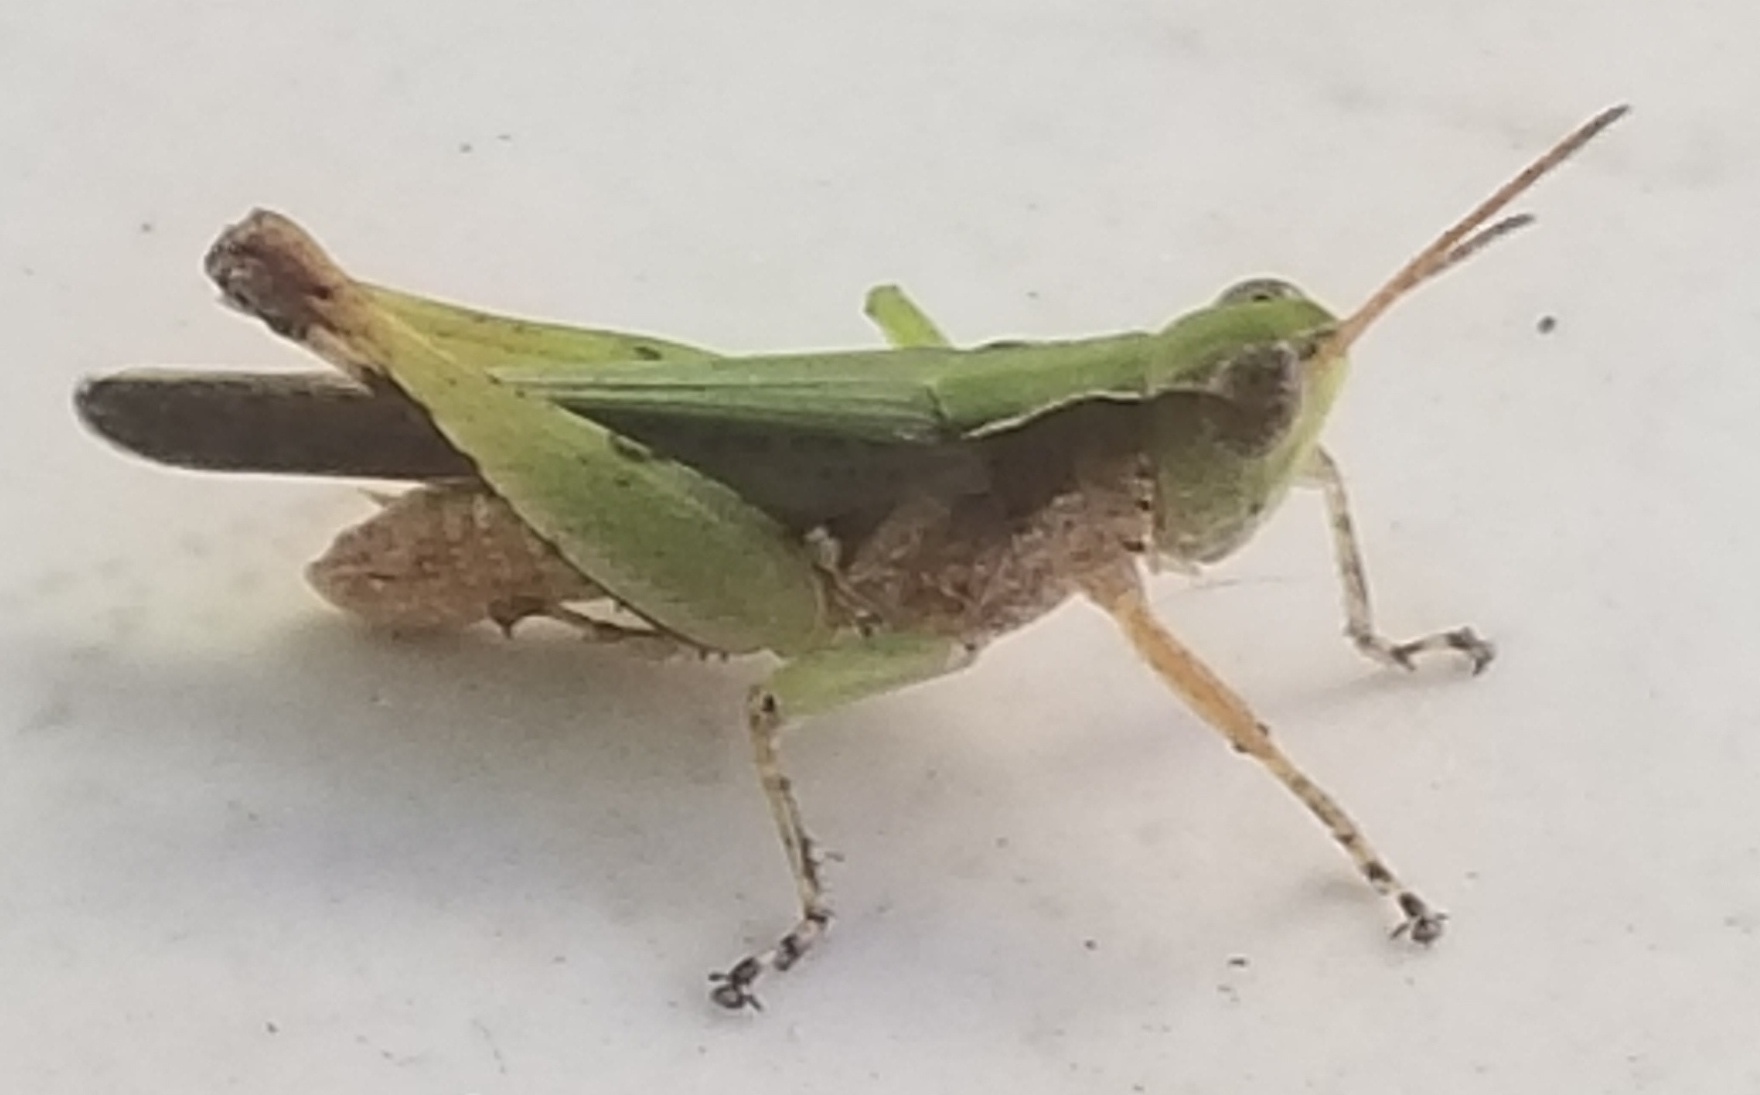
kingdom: Animalia
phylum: Arthropoda
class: Insecta
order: Orthoptera
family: Acrididae
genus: Orphulella
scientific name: Orphulella punctata
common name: Slant-faced grasshopper
